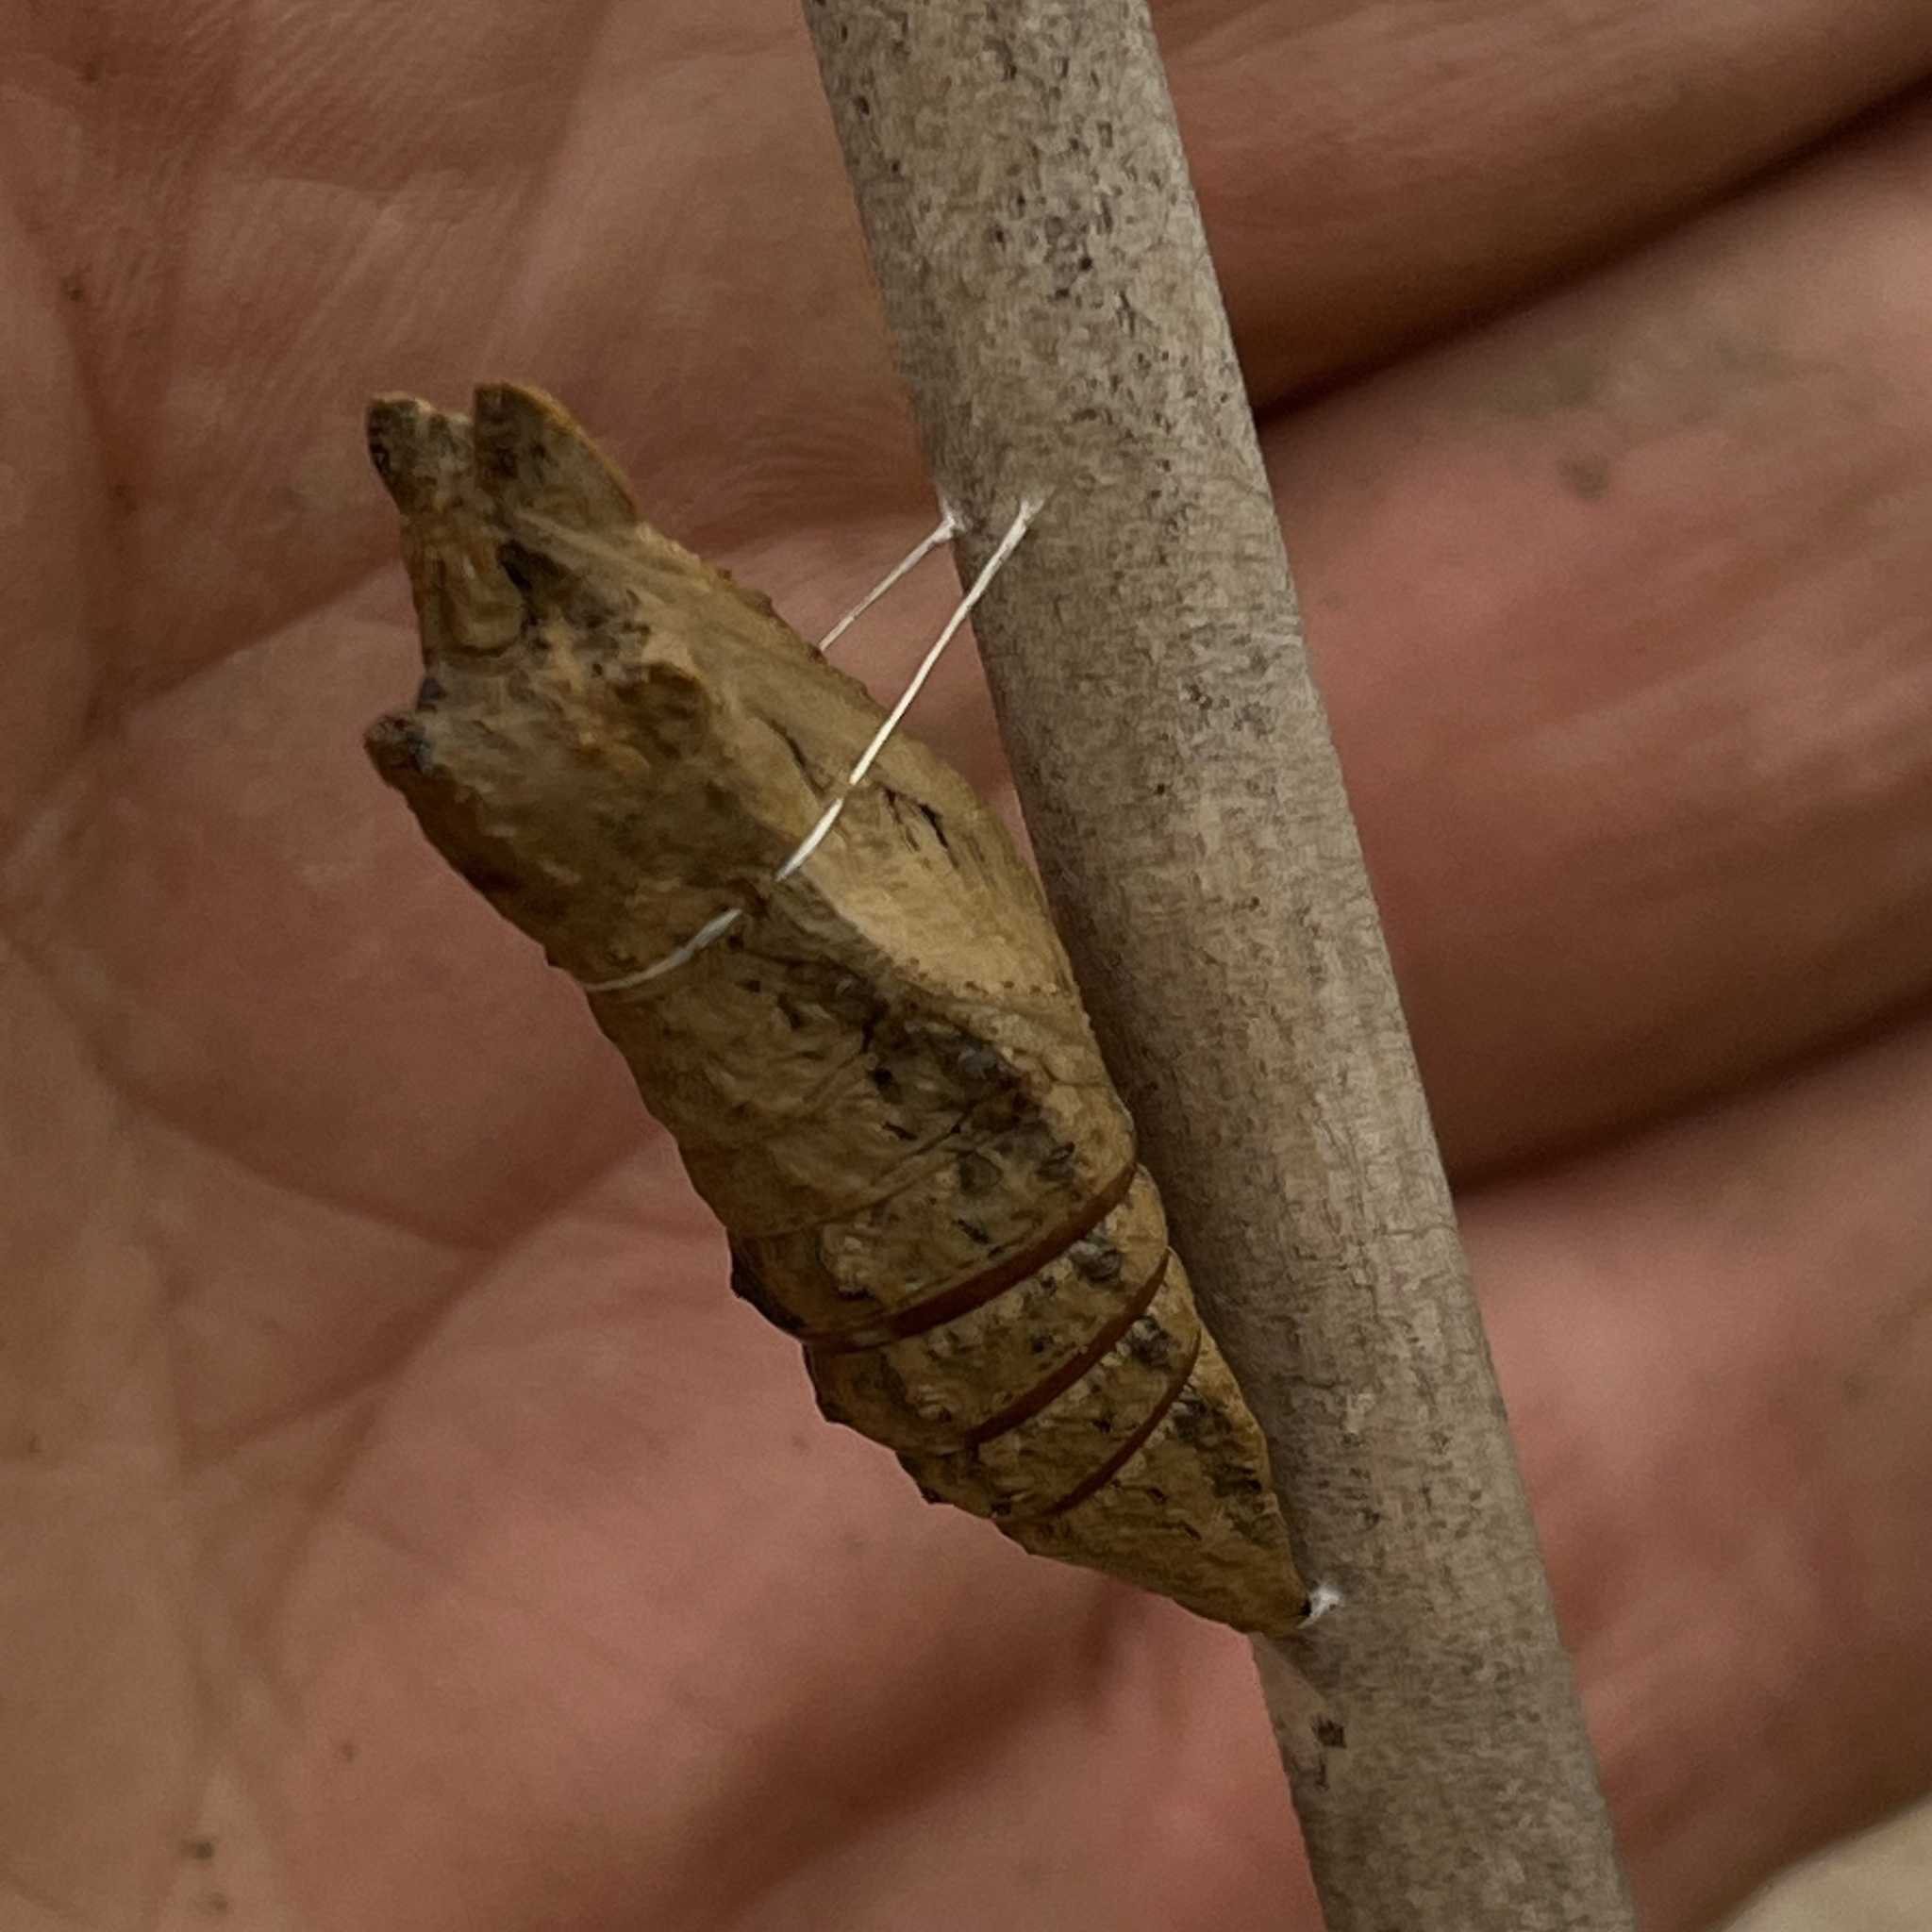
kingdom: Animalia
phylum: Arthropoda
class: Insecta
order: Lepidoptera
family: Papilionidae
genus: Papilio
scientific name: Papilio polyxenes
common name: Black swallowtail
